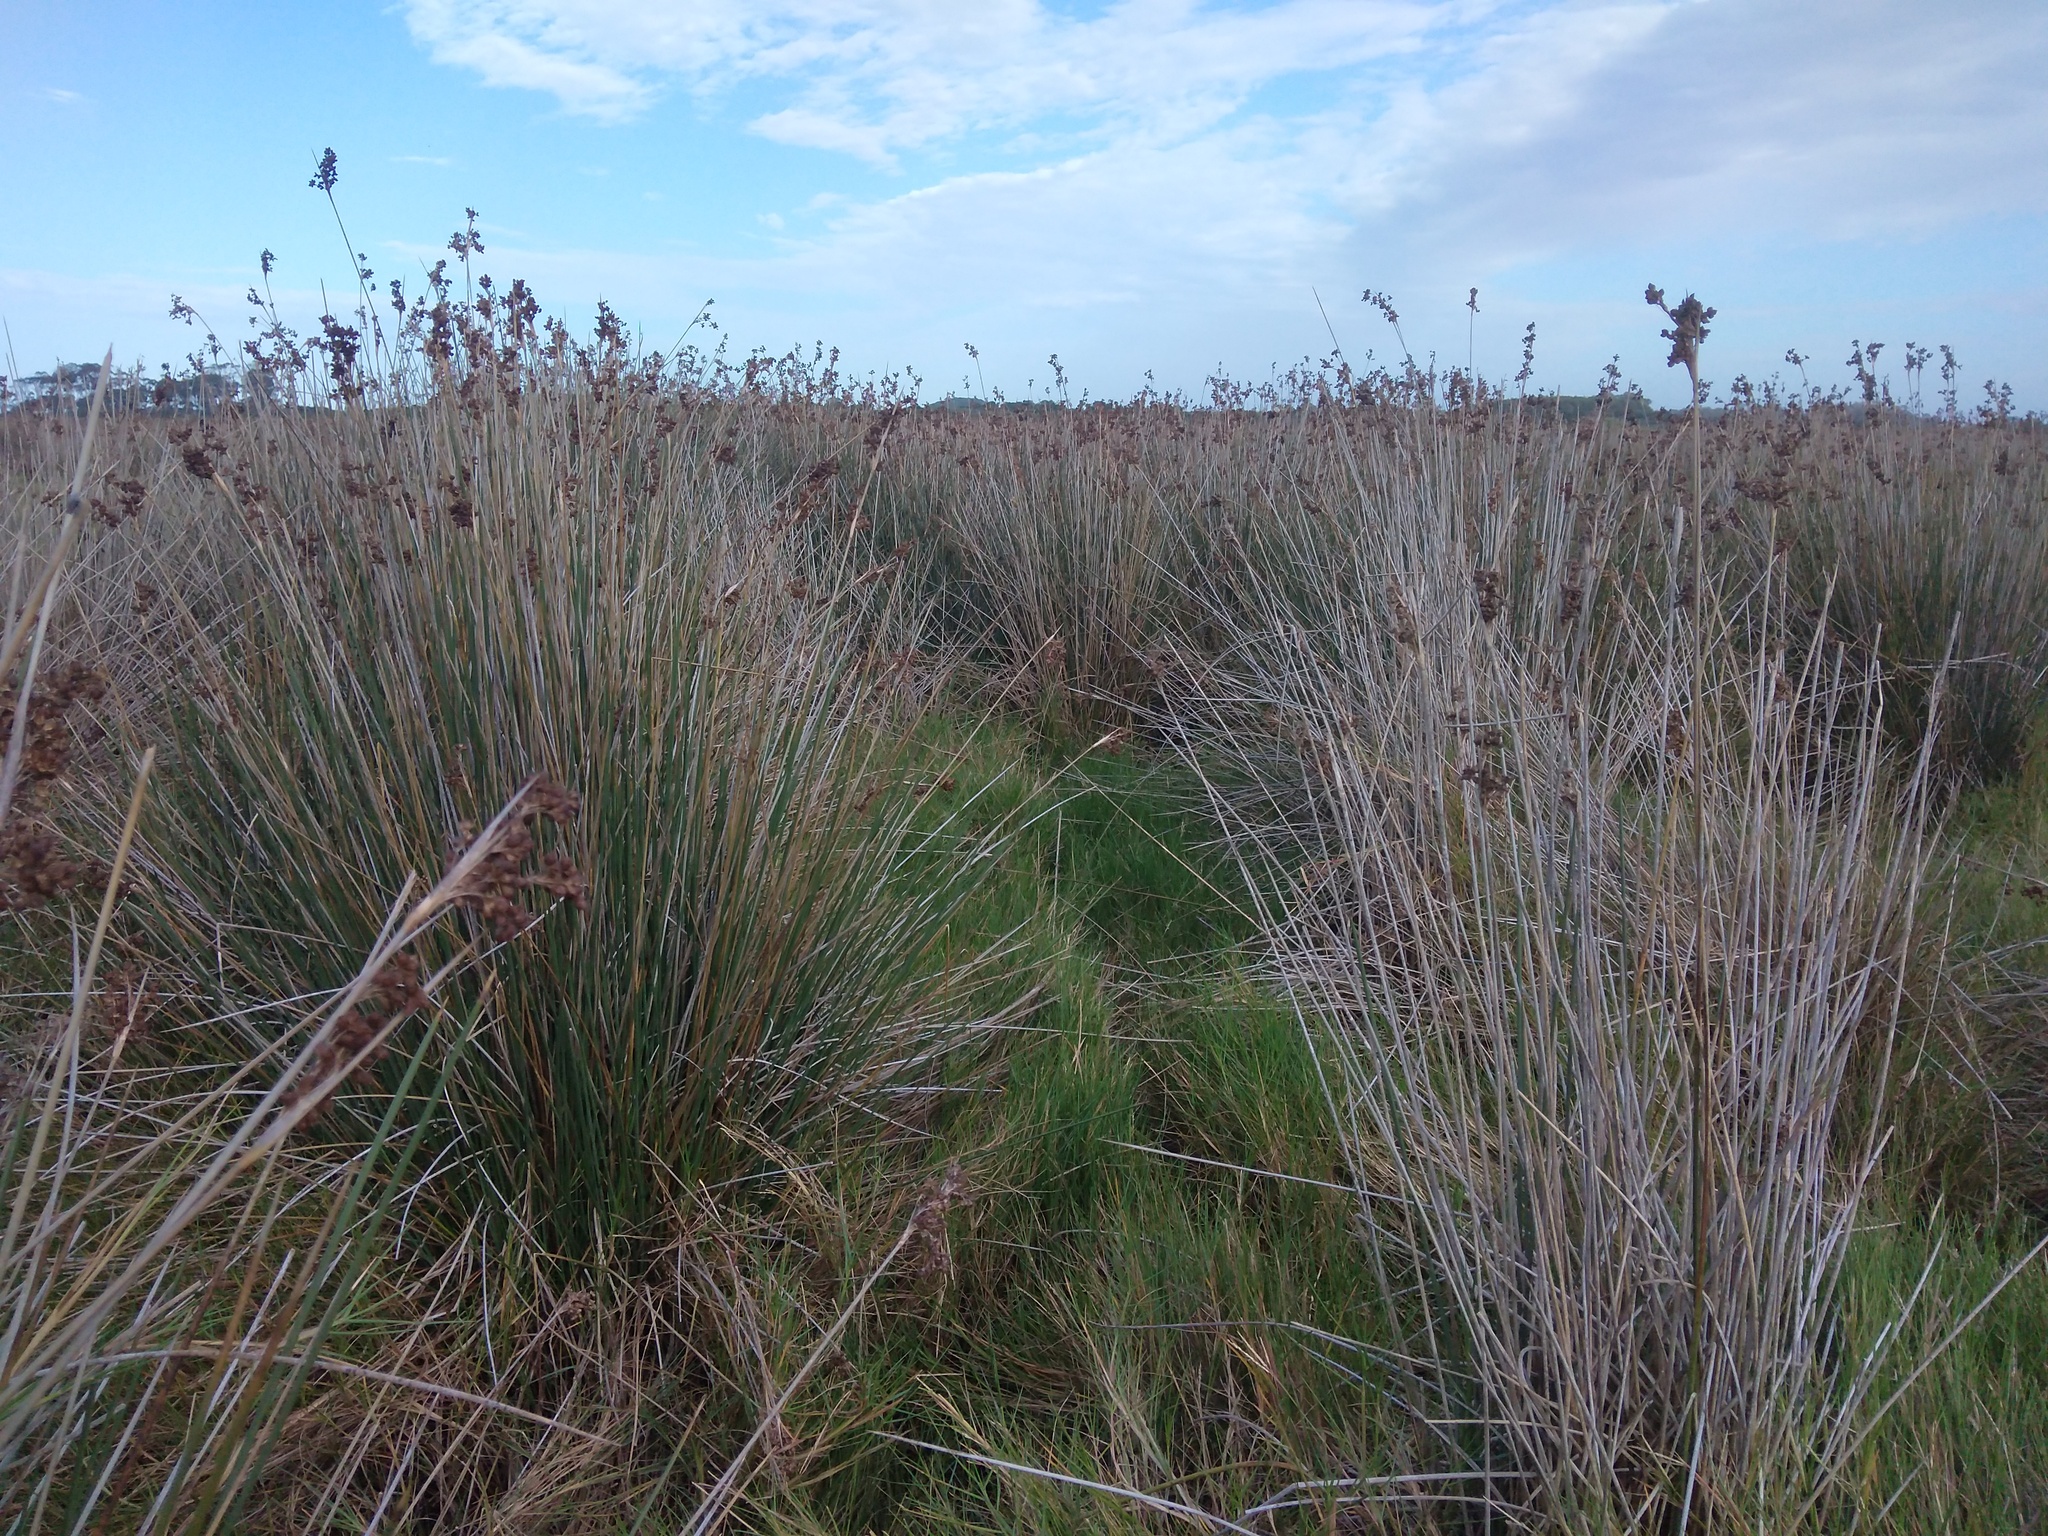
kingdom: Plantae
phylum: Tracheophyta
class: Liliopsida
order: Poales
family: Juncaceae
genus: Juncus
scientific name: Juncus acutus
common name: Sharp rush
